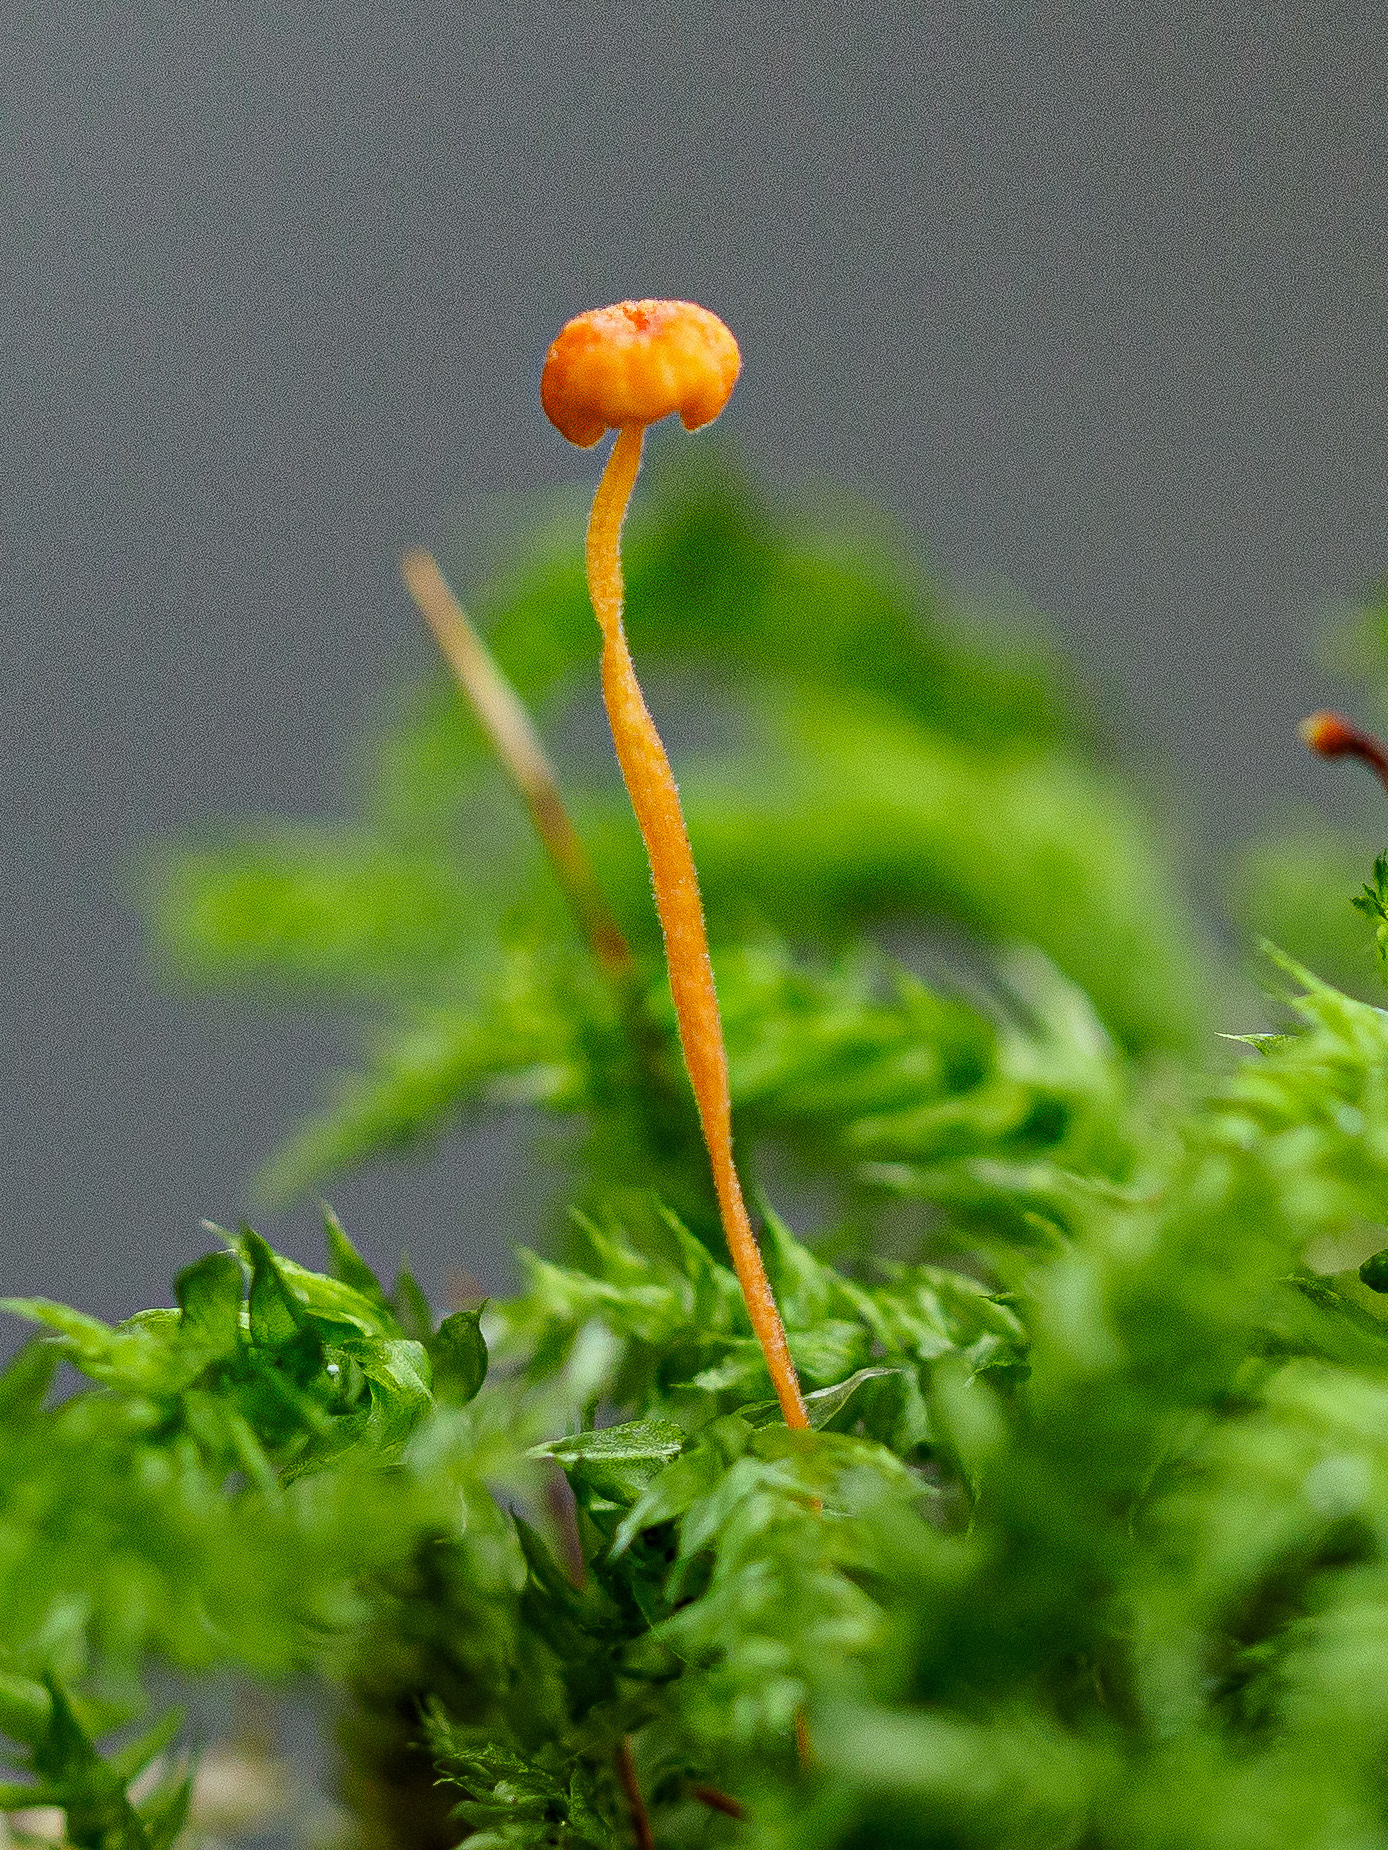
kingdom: Fungi
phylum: Basidiomycota
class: Agaricomycetes
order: Hymenochaetales
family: Rickenellaceae
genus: Rickenella
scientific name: Rickenella fibula
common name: Orange mosscap
